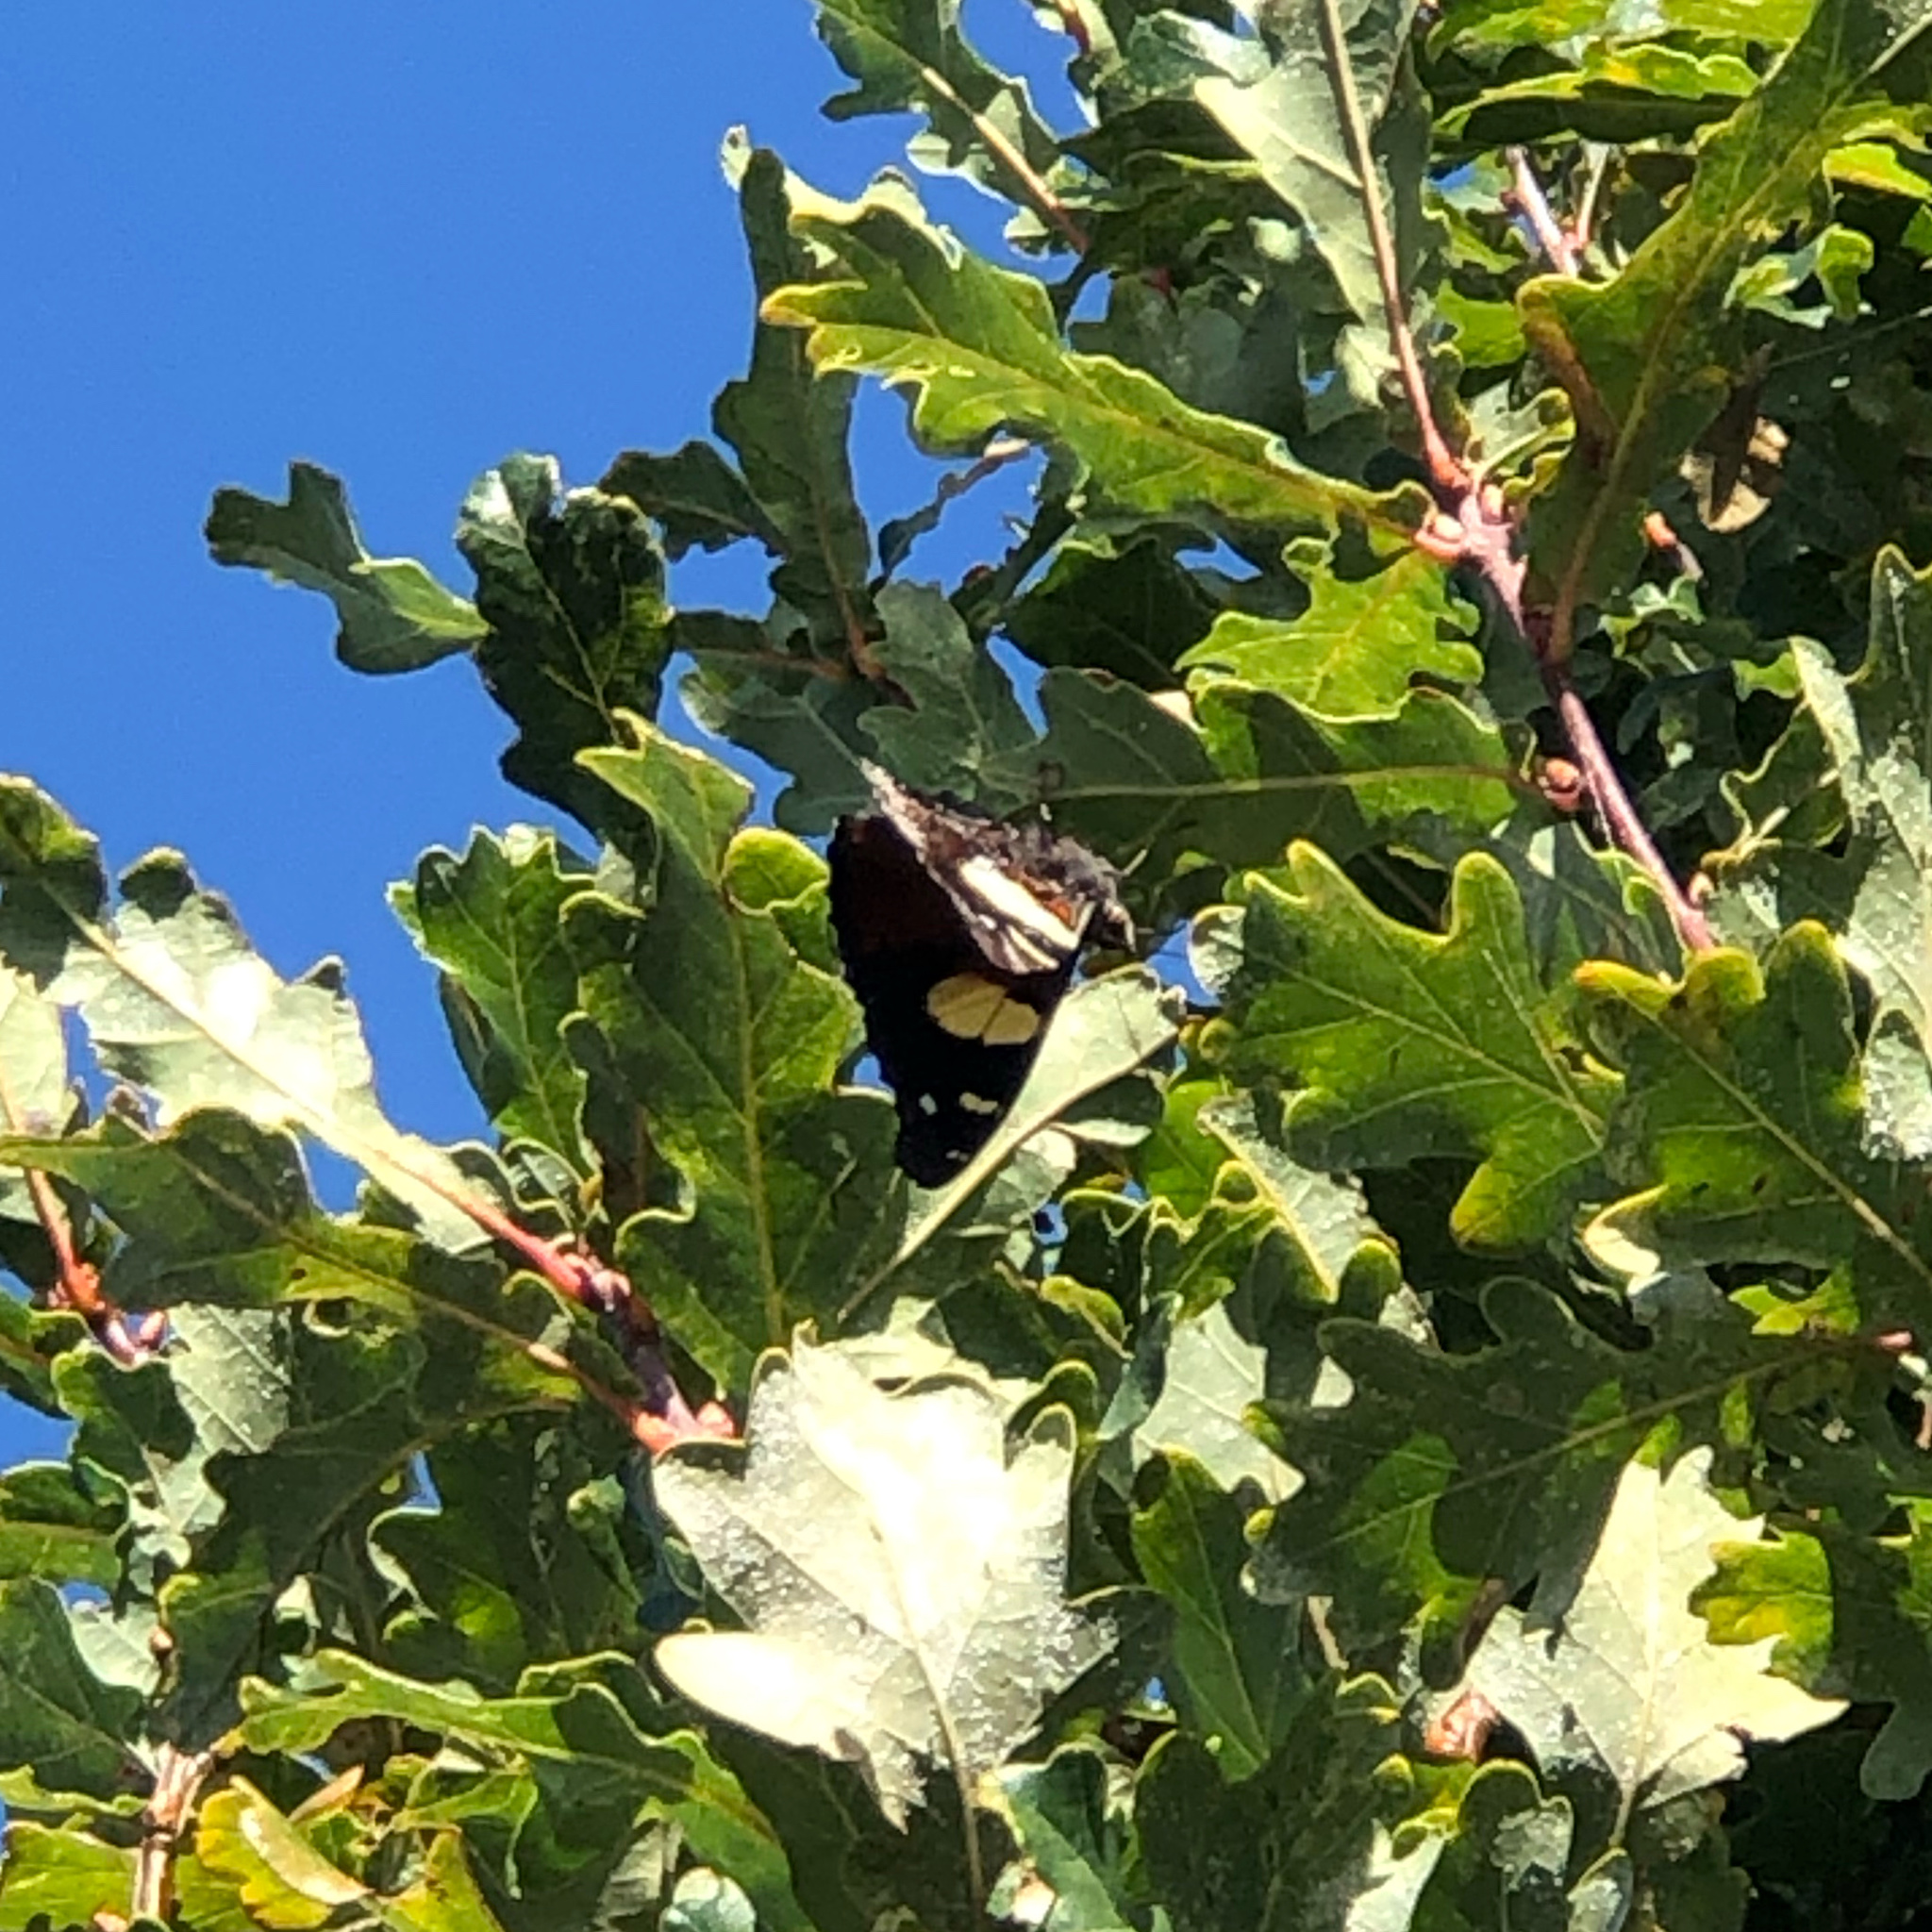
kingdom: Animalia
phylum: Arthropoda
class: Insecta
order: Lepidoptera
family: Nymphalidae
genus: Vanessa
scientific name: Vanessa itea
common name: Yellow admiral
